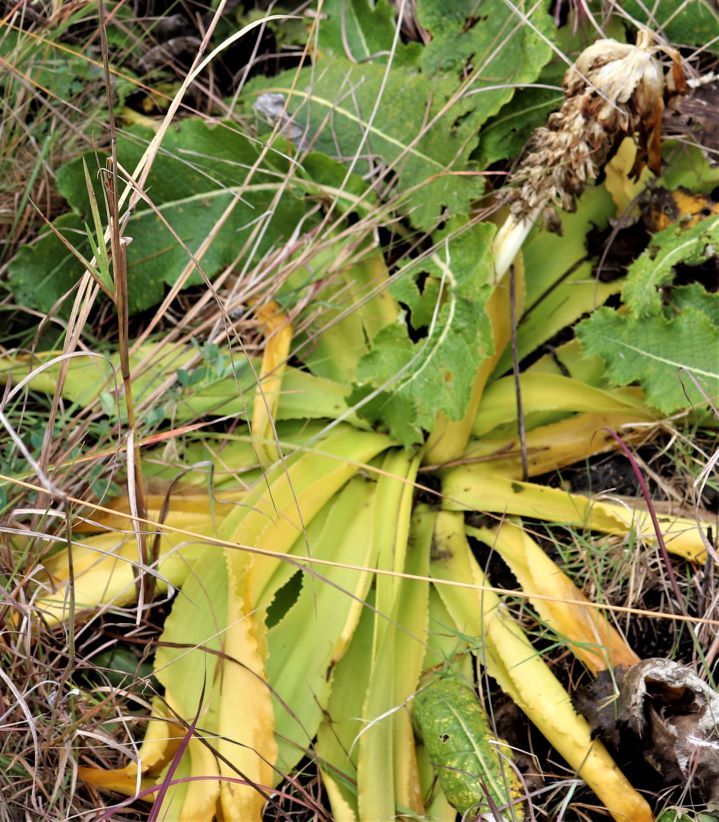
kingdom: Plantae
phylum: Tracheophyta
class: Liliopsida
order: Asparagales
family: Asparagaceae
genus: Eucomis
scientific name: Eucomis autumnalis
